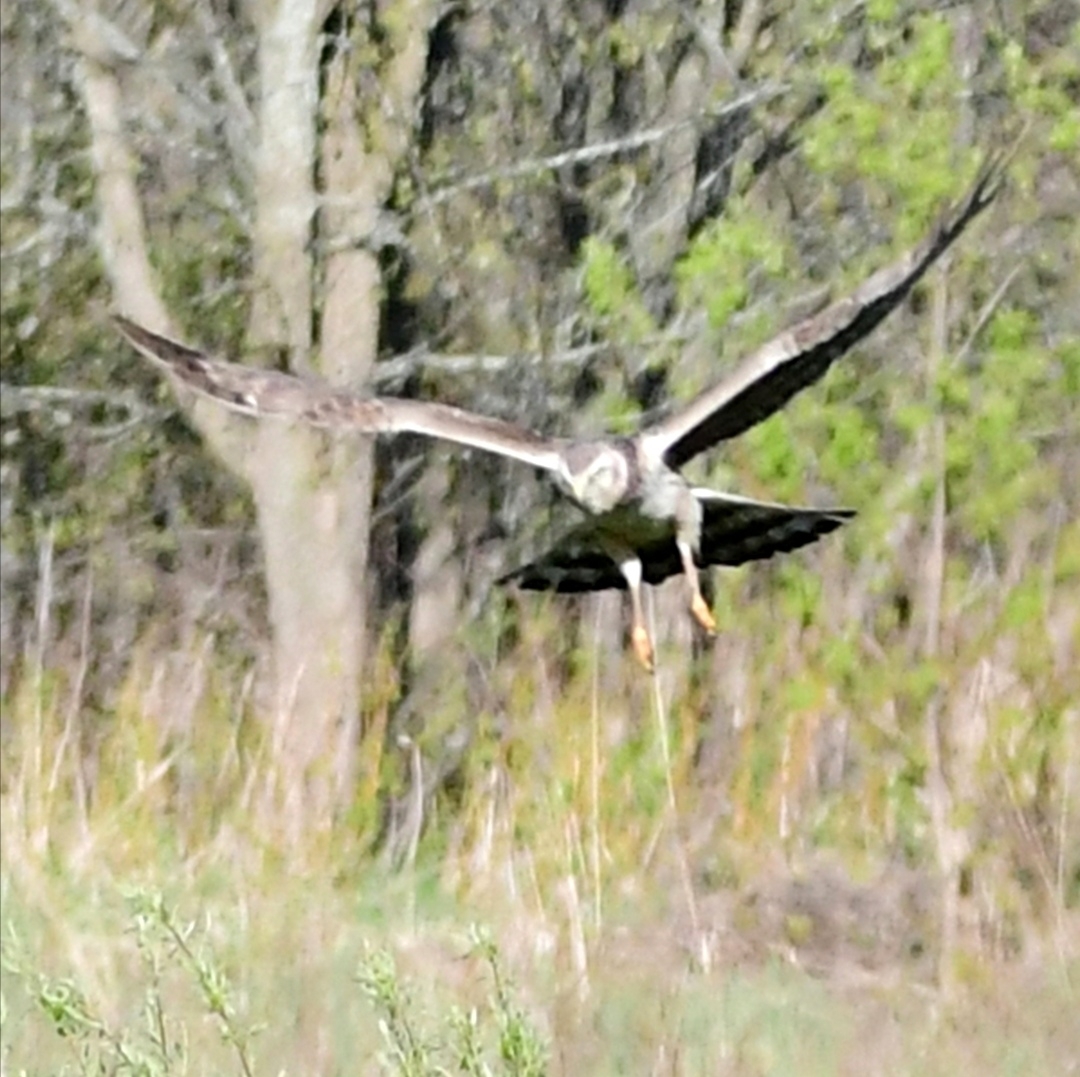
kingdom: Animalia
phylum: Chordata
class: Aves
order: Accipitriformes
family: Accipitridae
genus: Circus
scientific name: Circus cyaneus
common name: Hen harrier
